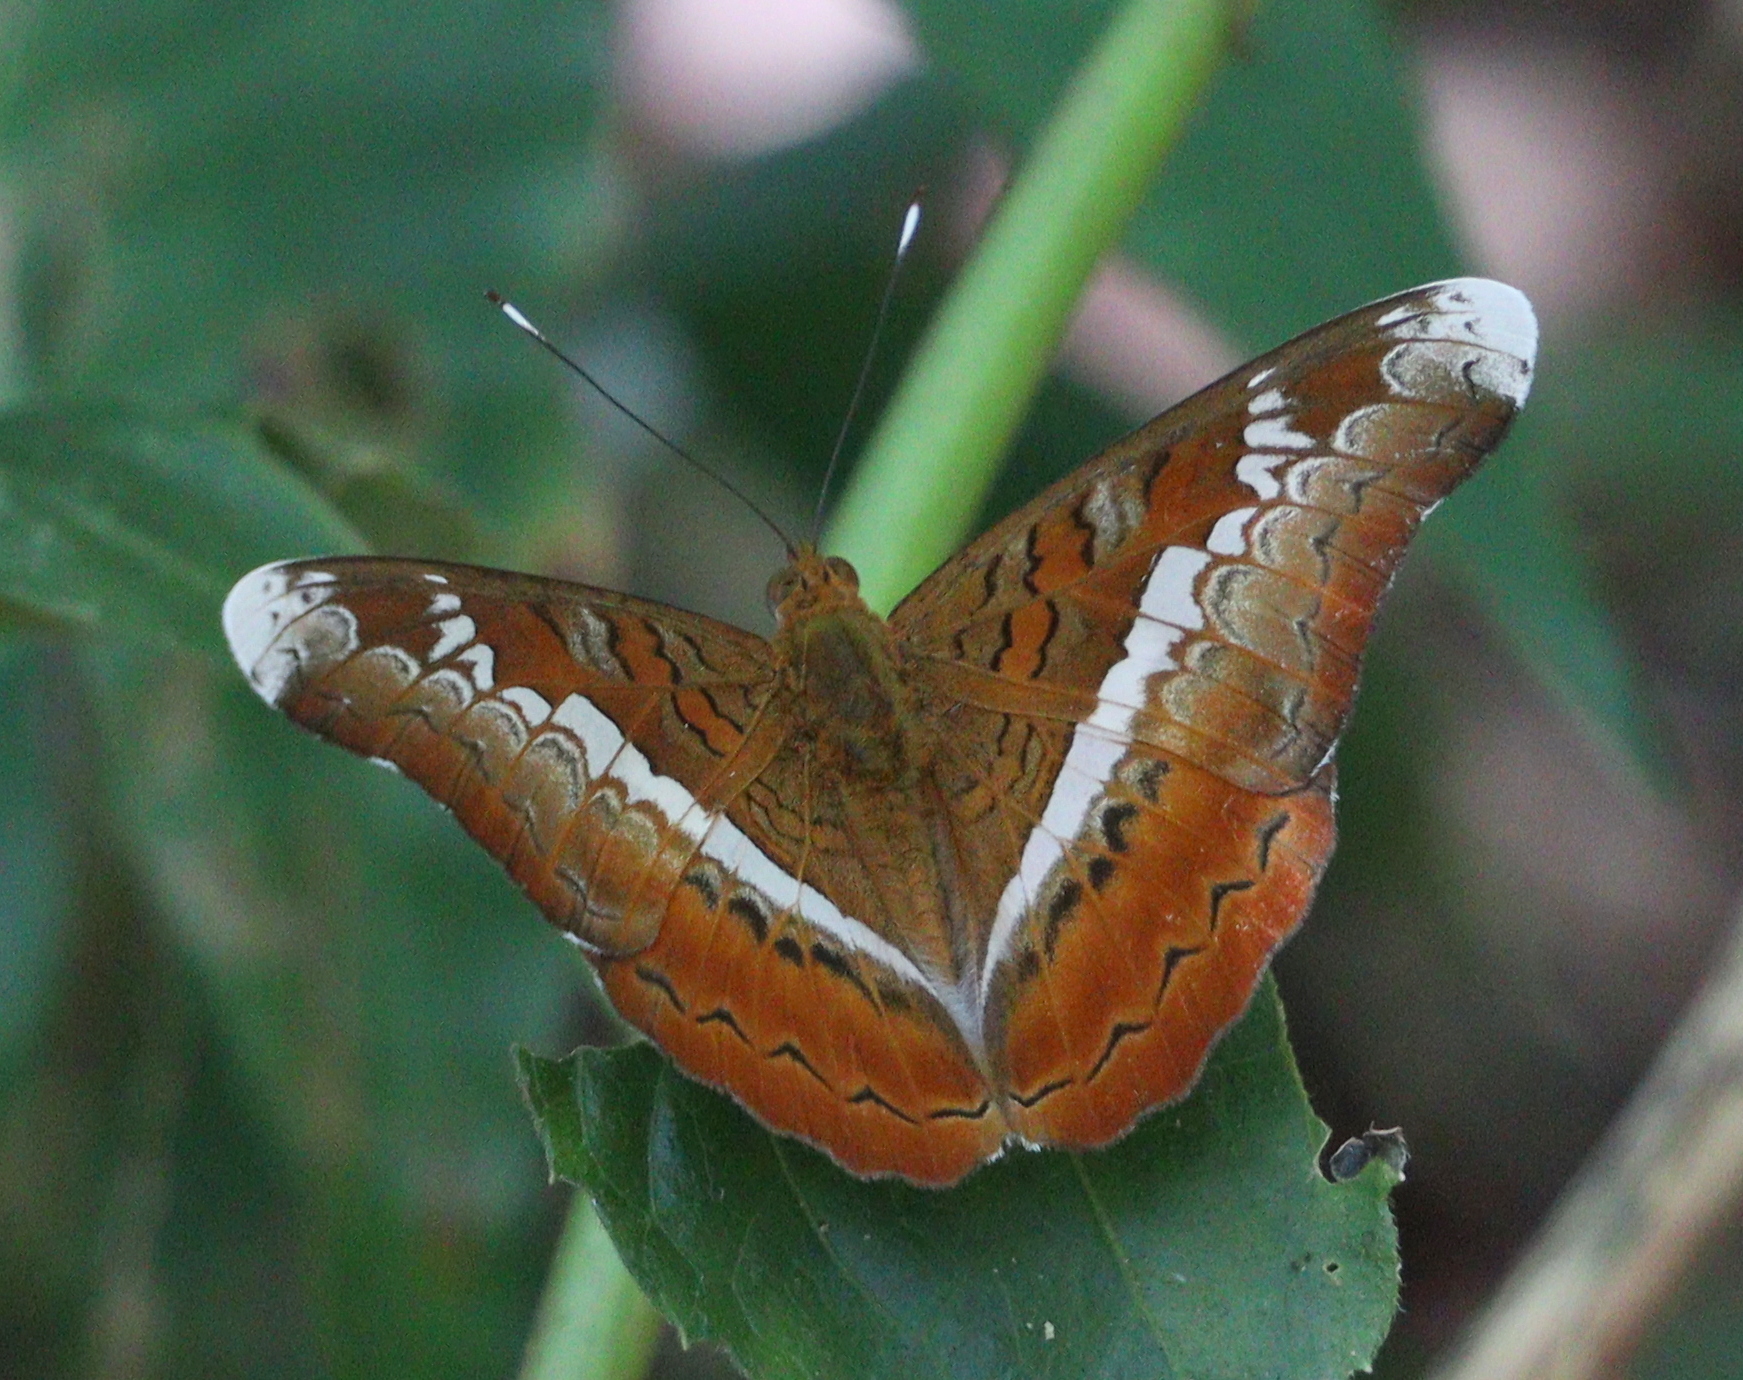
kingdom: Animalia
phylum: Arthropoda
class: Insecta
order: Lepidoptera
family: Nymphalidae
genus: Lebadea
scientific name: Lebadea martha
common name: Knight
